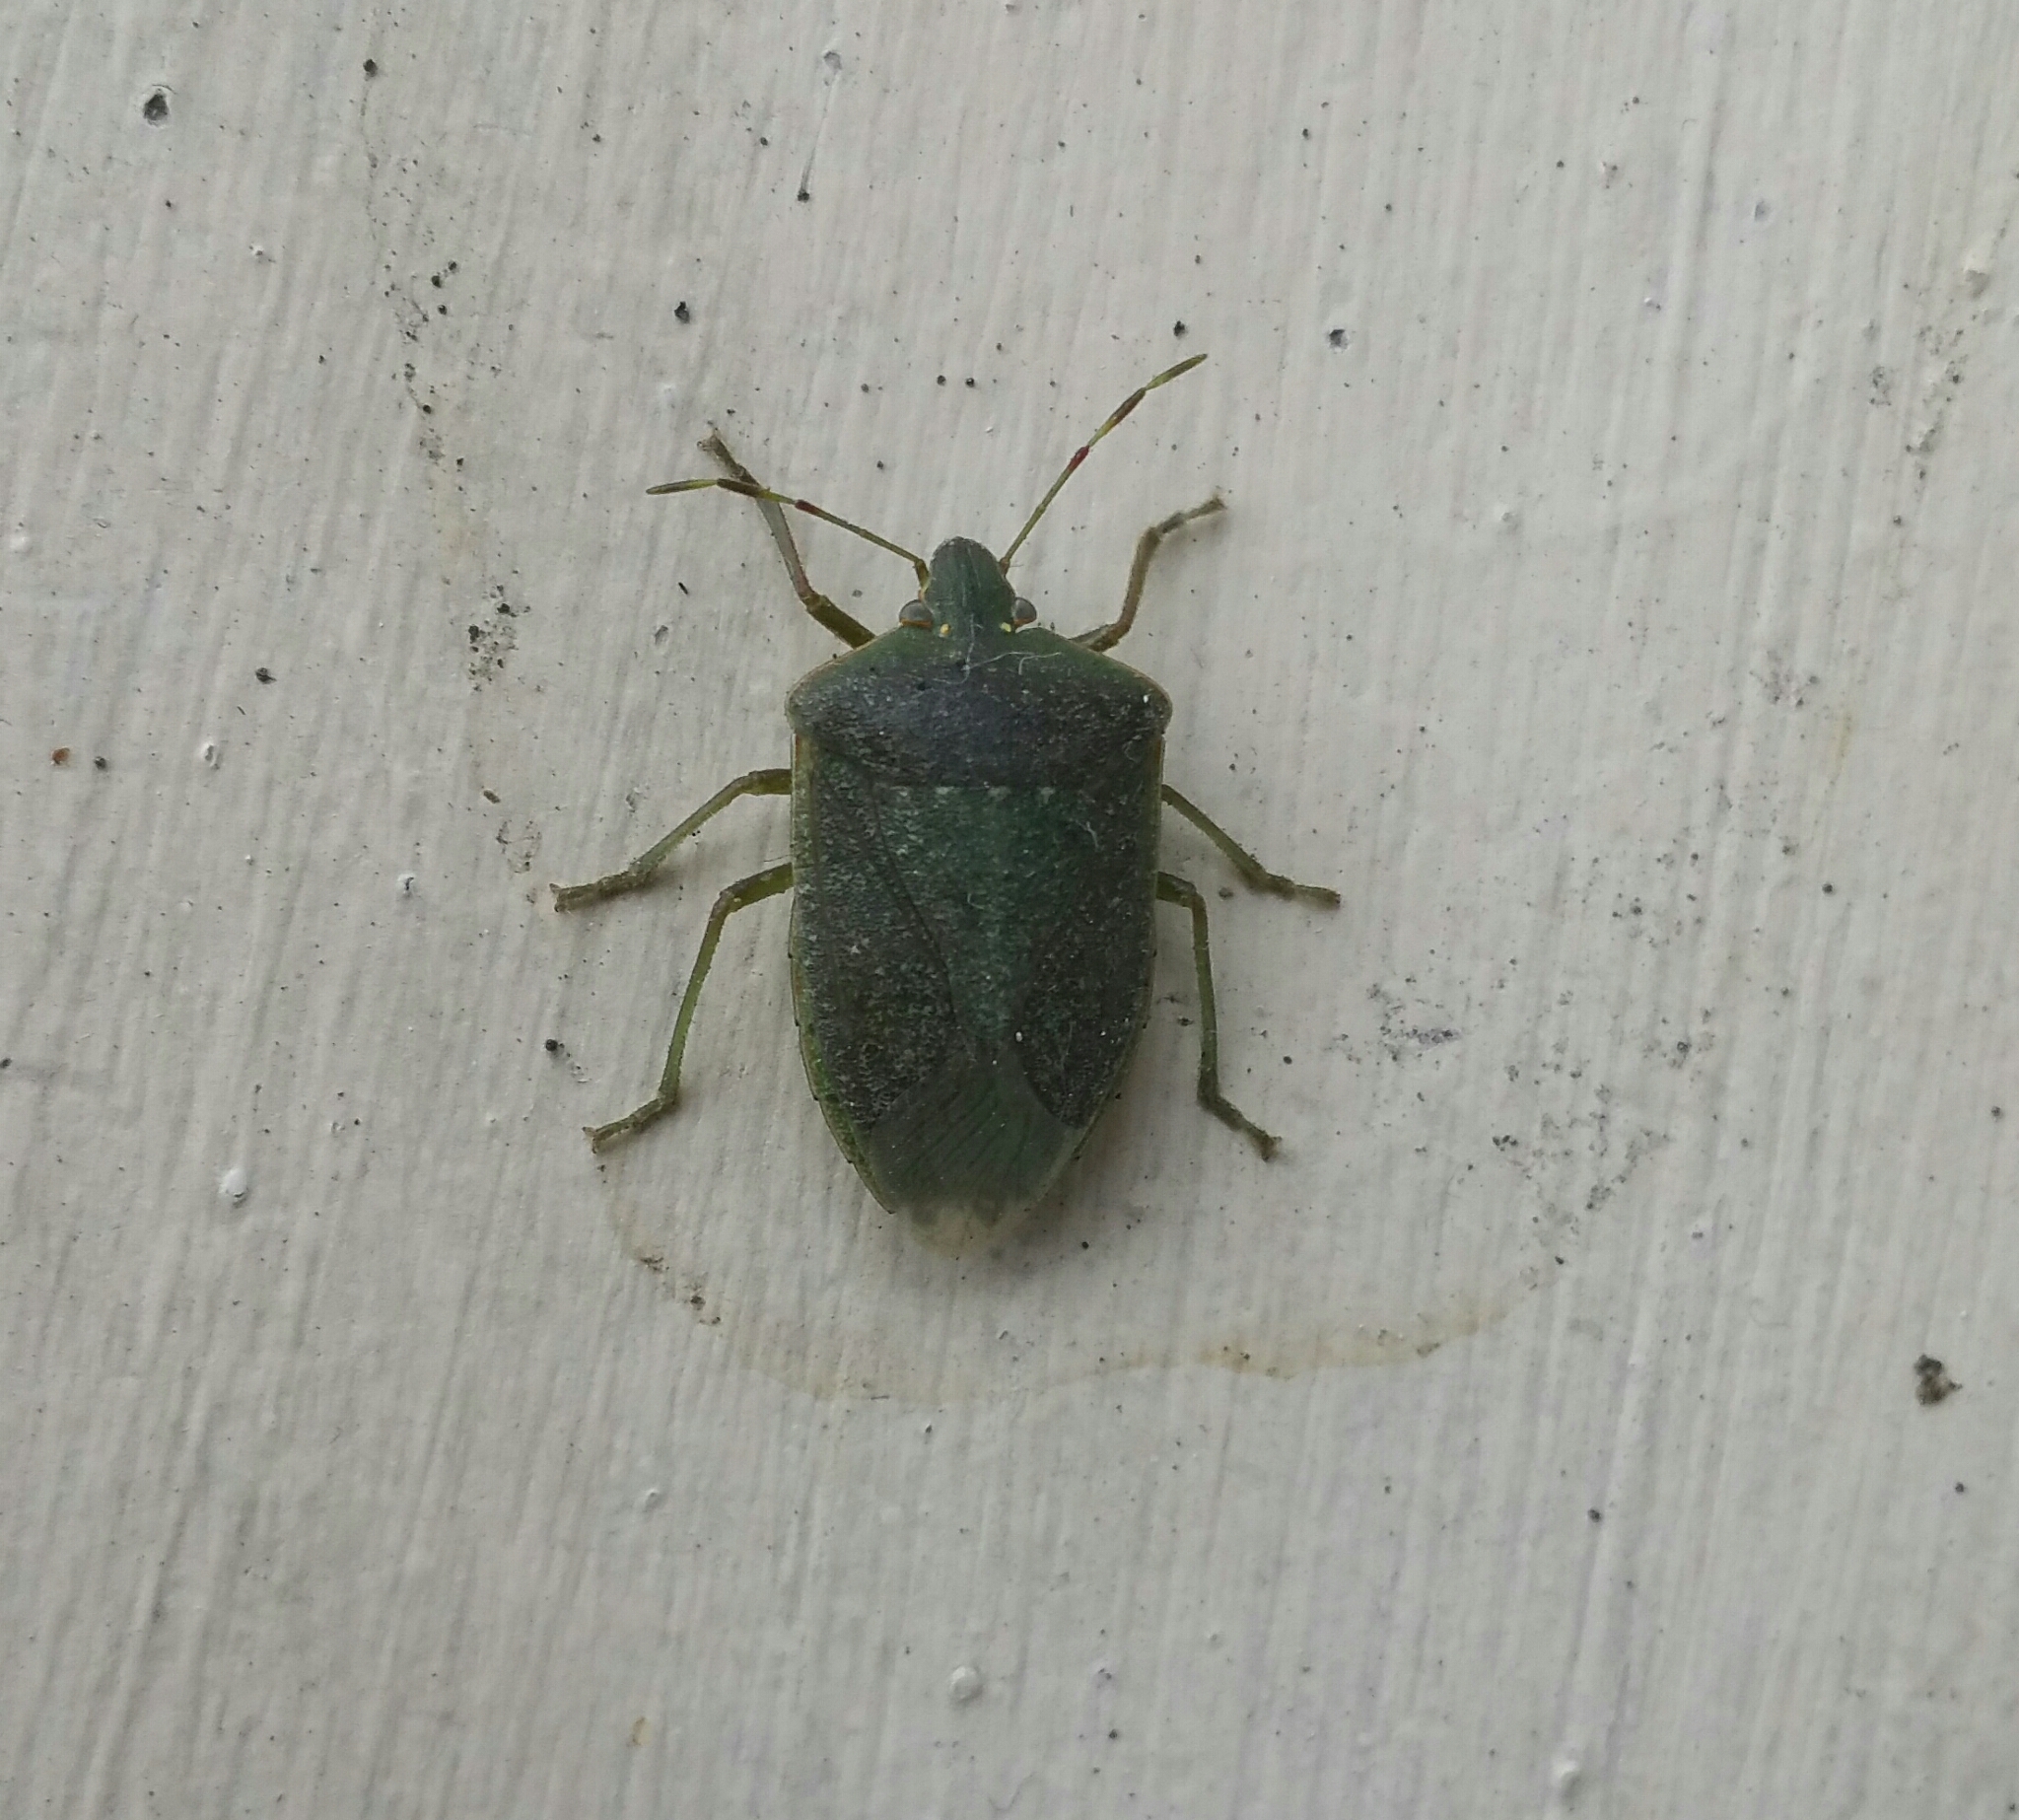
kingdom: Animalia
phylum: Arthropoda
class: Insecta
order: Hemiptera
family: Pentatomidae
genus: Nezara
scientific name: Nezara viridula
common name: Southern green stink bug
